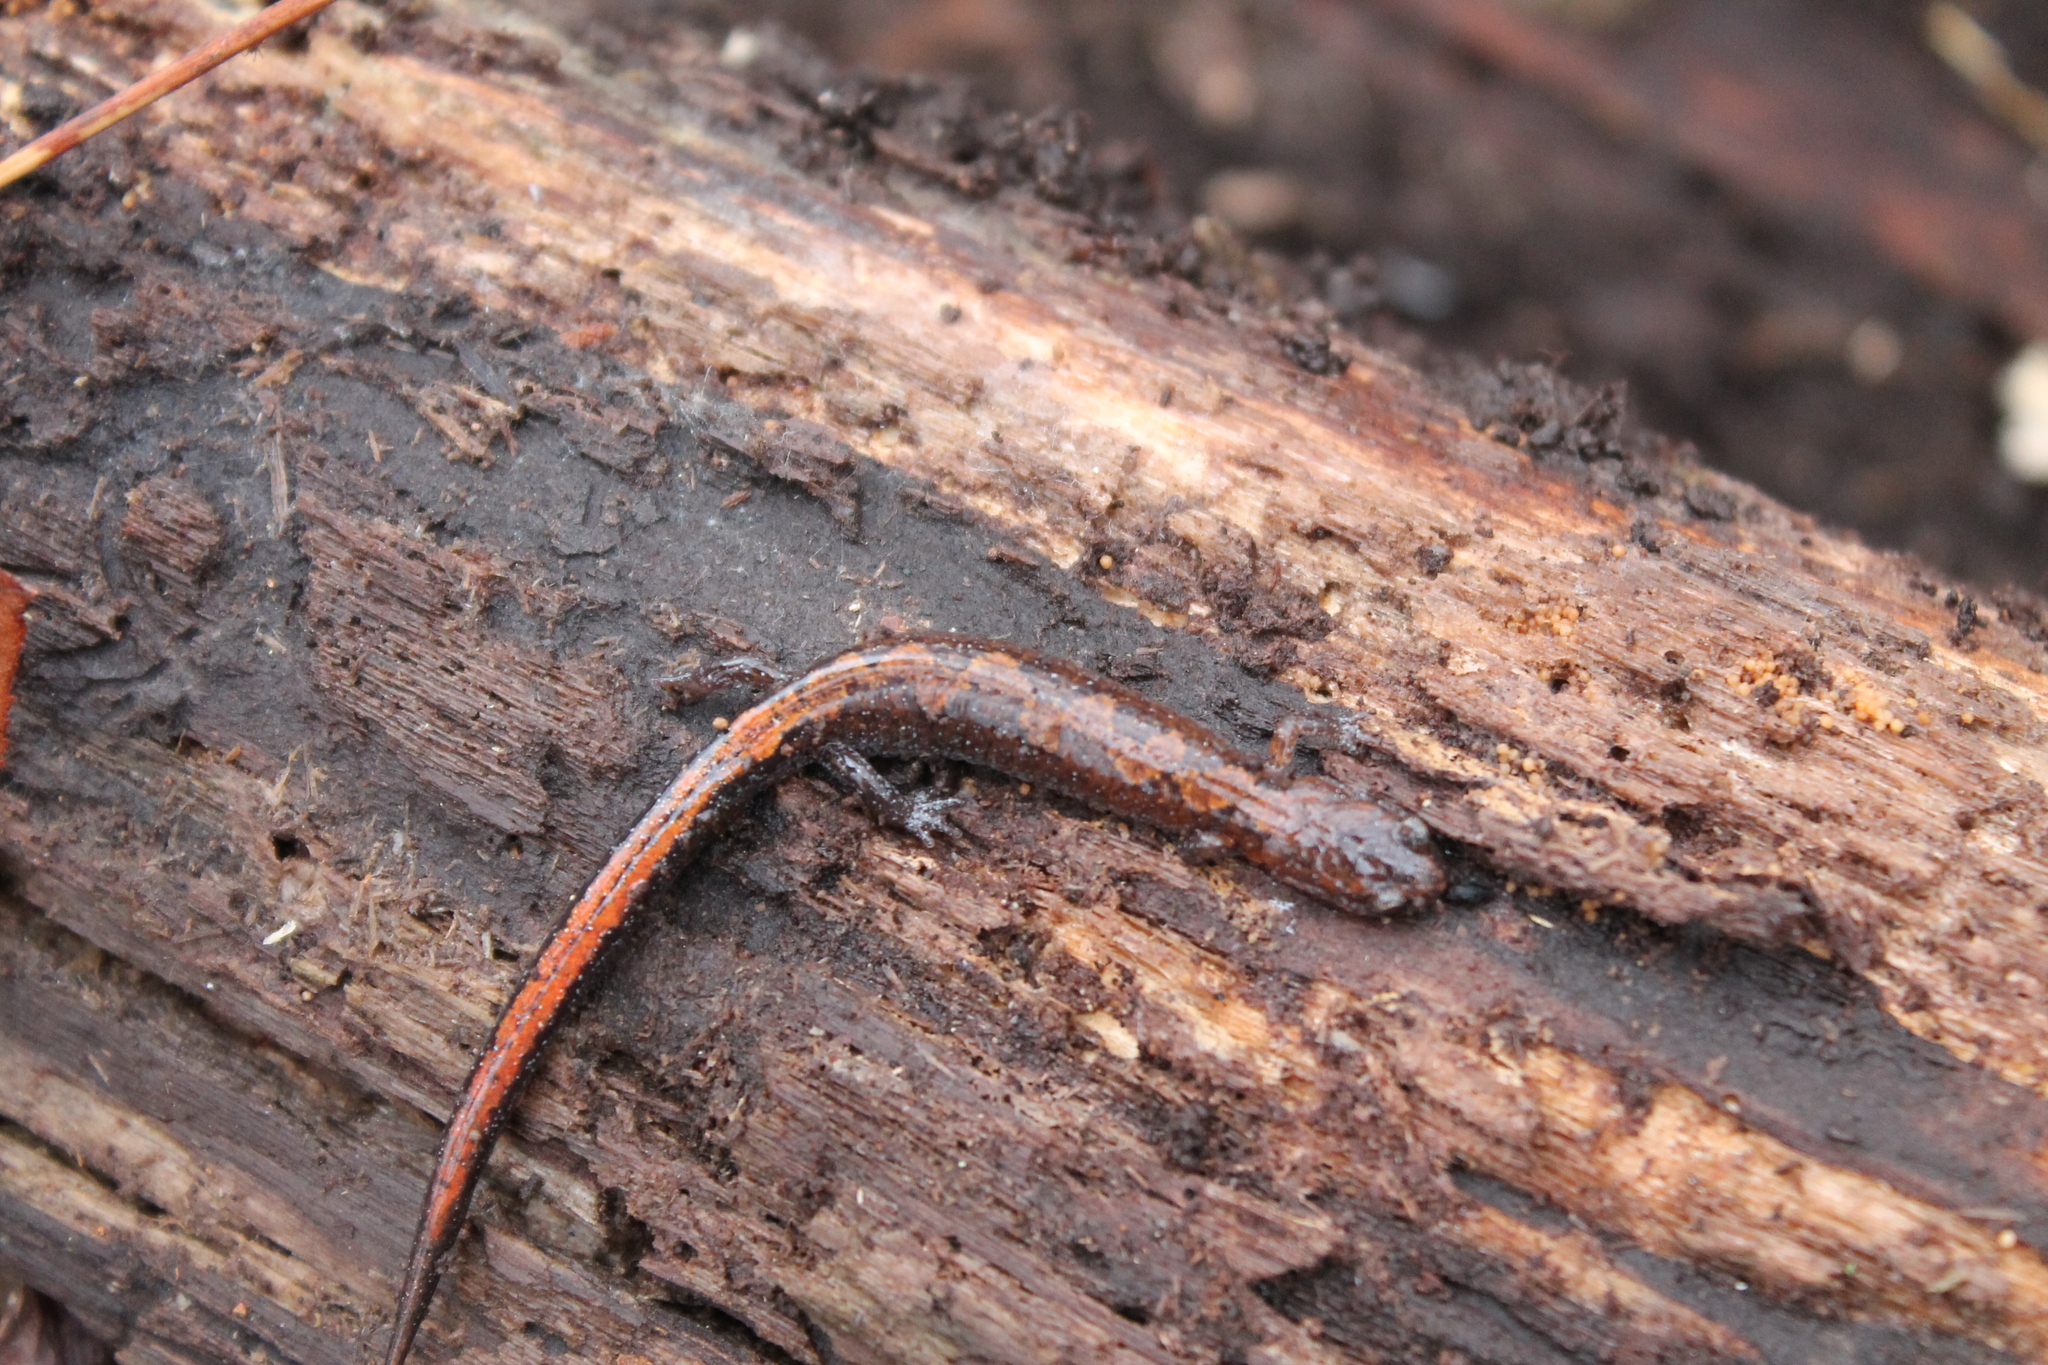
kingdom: Animalia
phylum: Chordata
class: Amphibia
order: Caudata
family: Plethodontidae
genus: Plethodon
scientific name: Plethodon dorsalis
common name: Northern zigzag salamander
